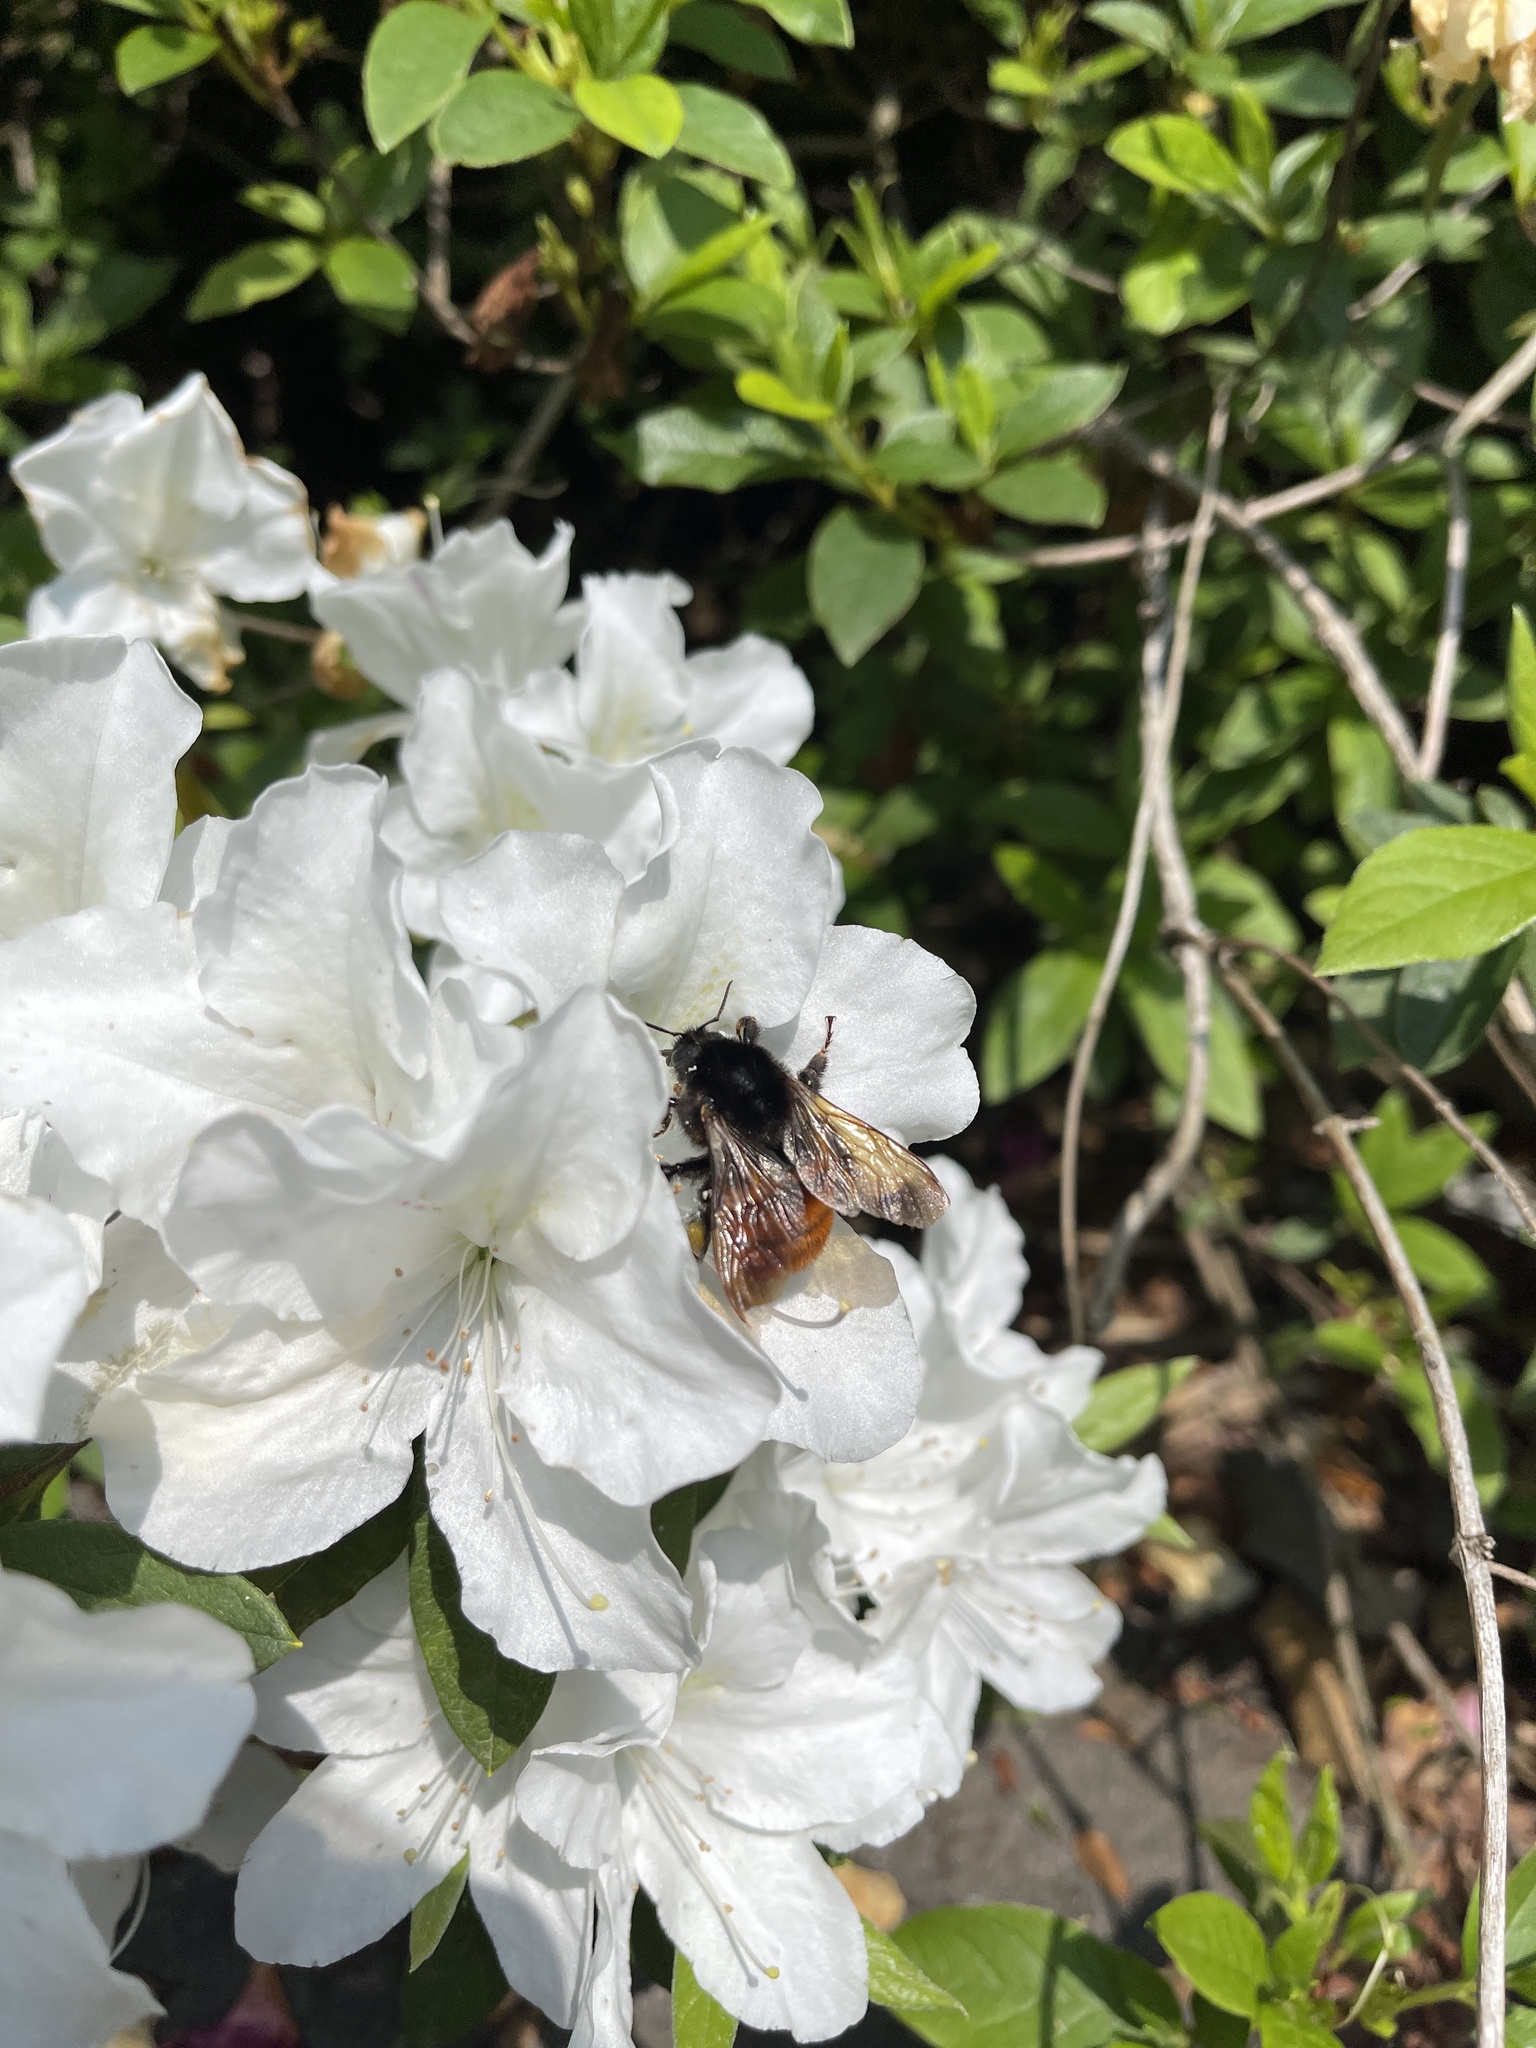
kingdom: Animalia
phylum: Arthropoda
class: Insecta
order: Hymenoptera
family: Apidae
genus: Bombus
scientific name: Bombus bicoloratus
